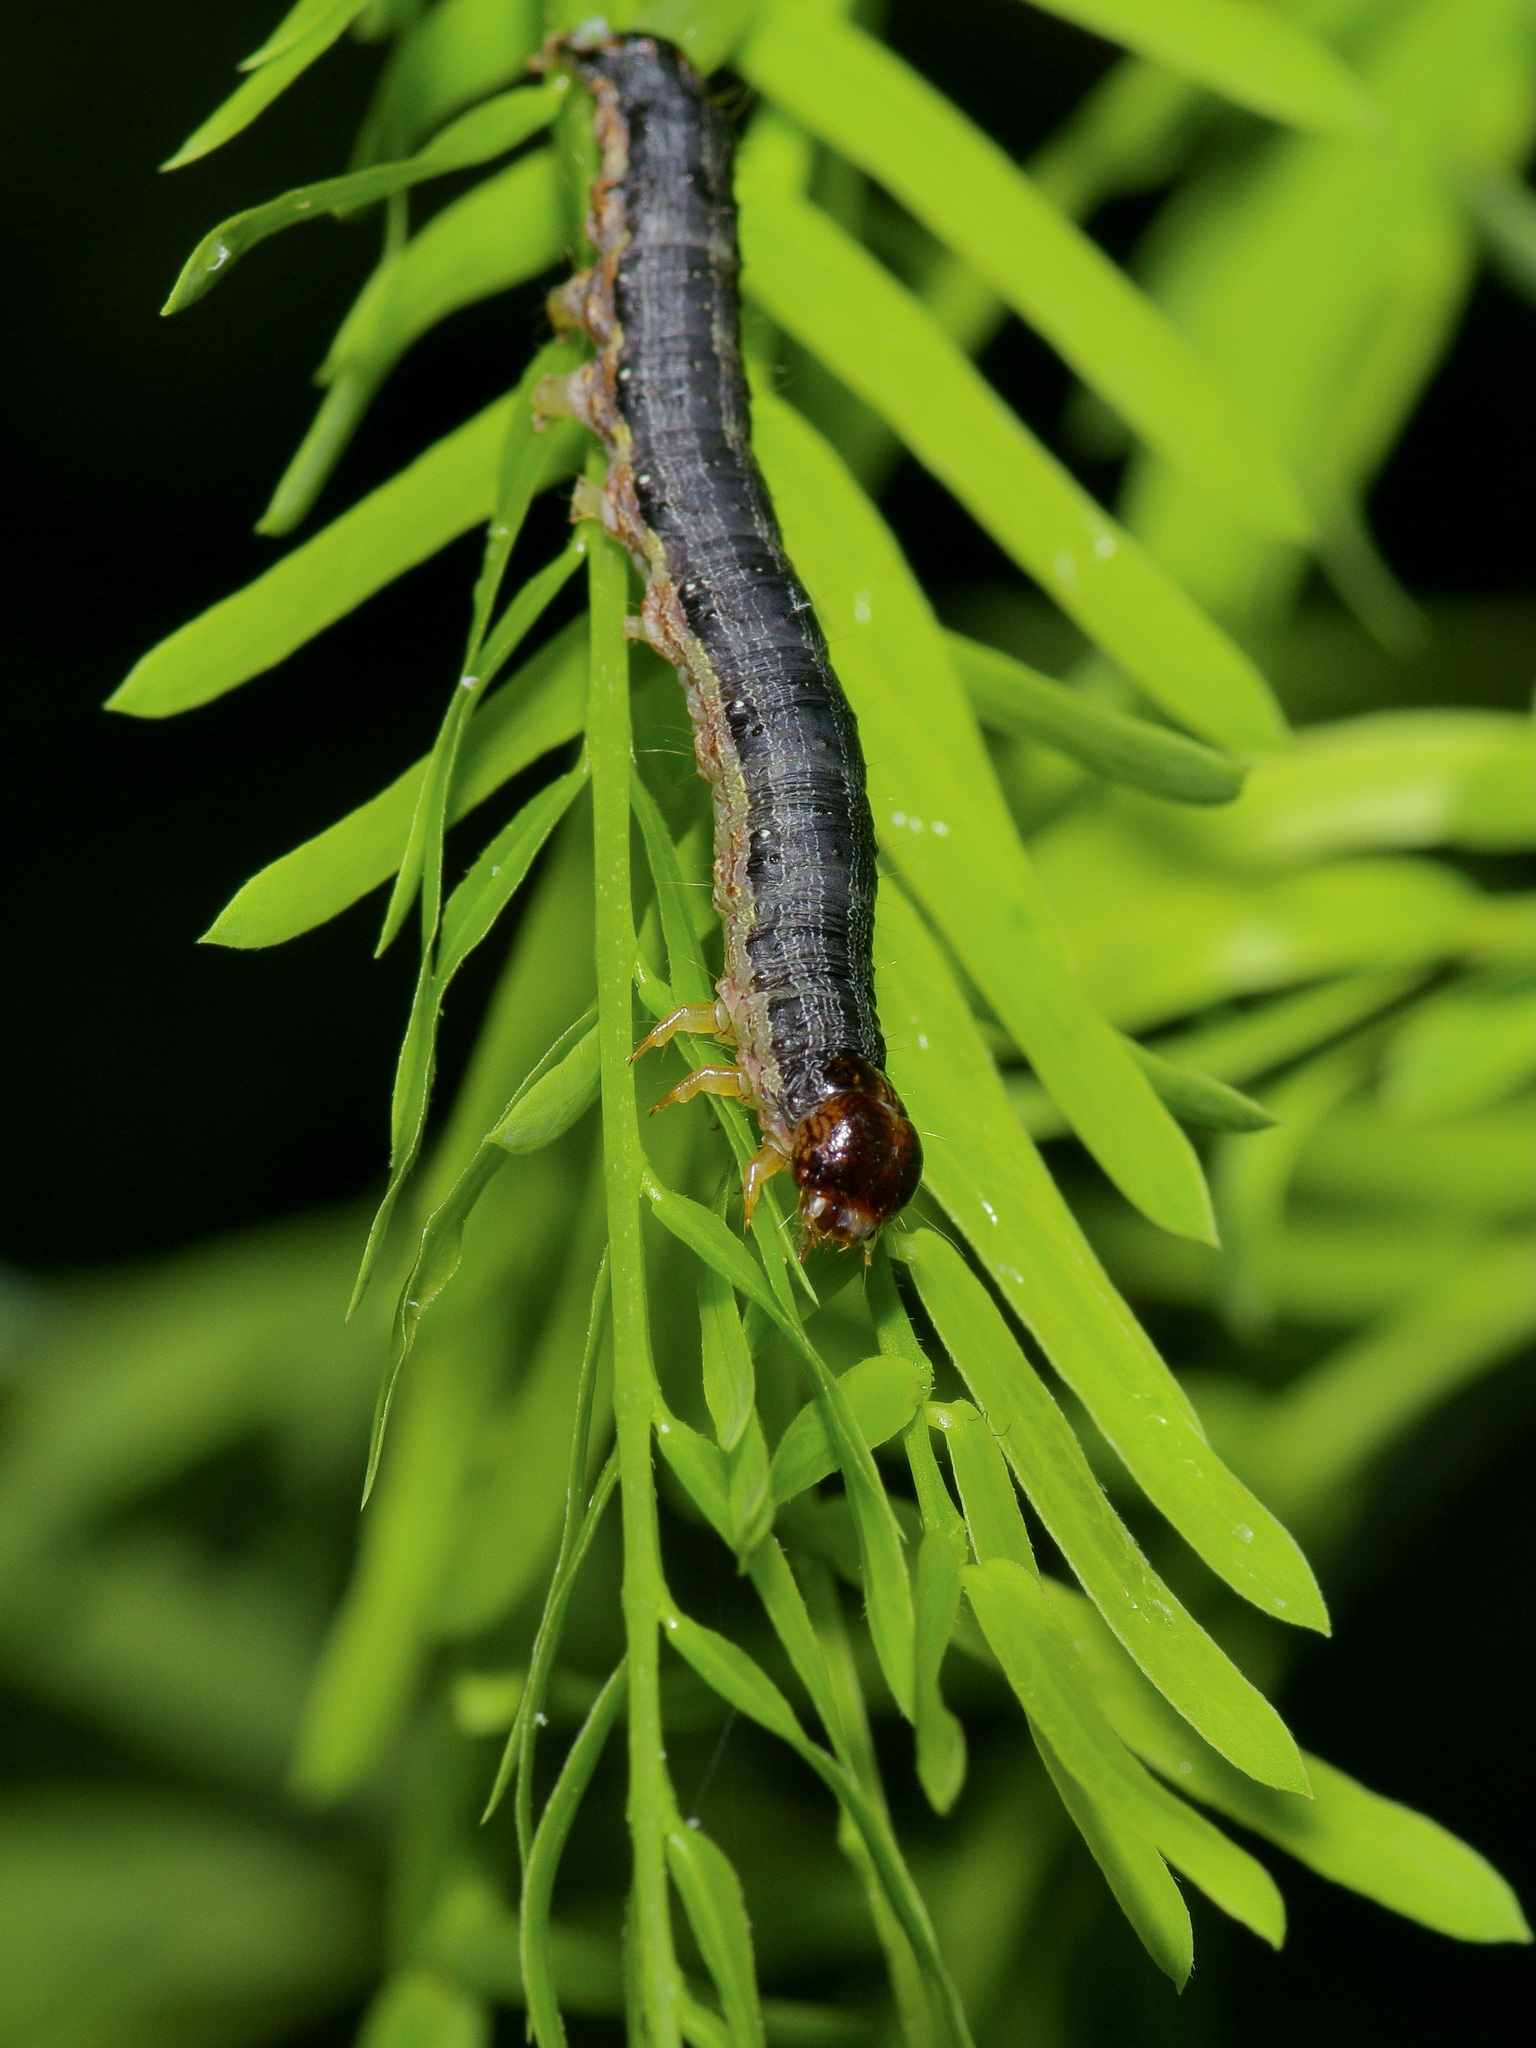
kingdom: Animalia
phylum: Arthropoda
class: Insecta
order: Lepidoptera
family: Erebidae
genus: Melipotis
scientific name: Melipotis indomita
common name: Moth
